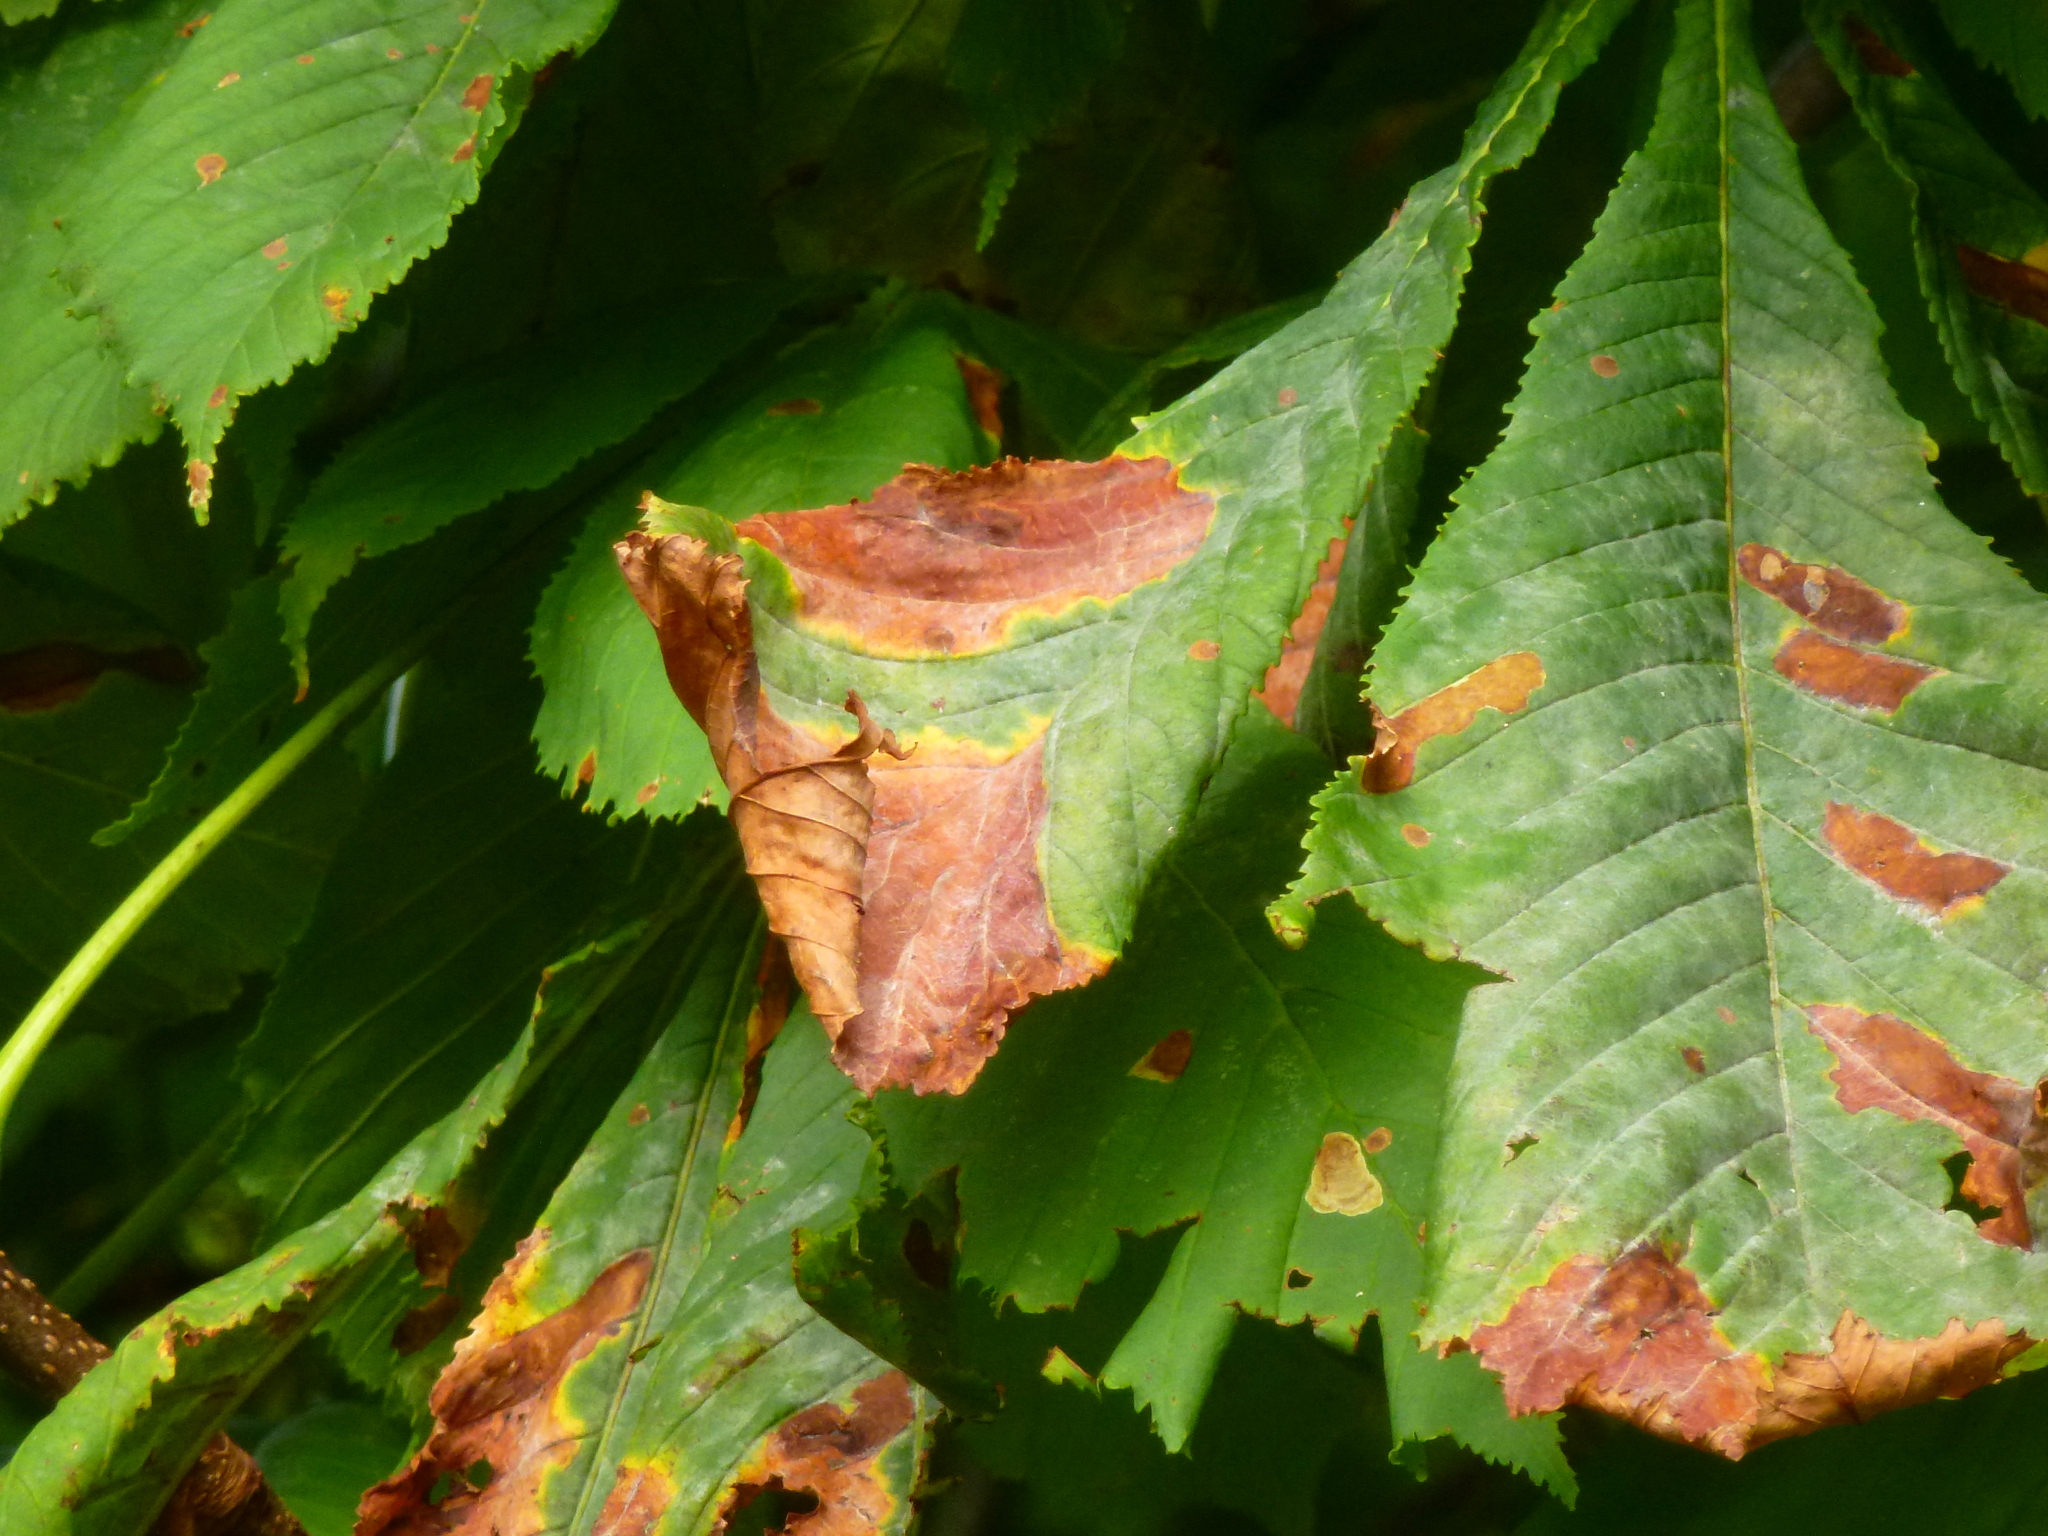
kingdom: Fungi
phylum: Ascomycota
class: Dothideomycetes
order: Botryosphaeriales
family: Phyllostictaceae
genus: Phyllosticta
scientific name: Phyllosticta paviae
